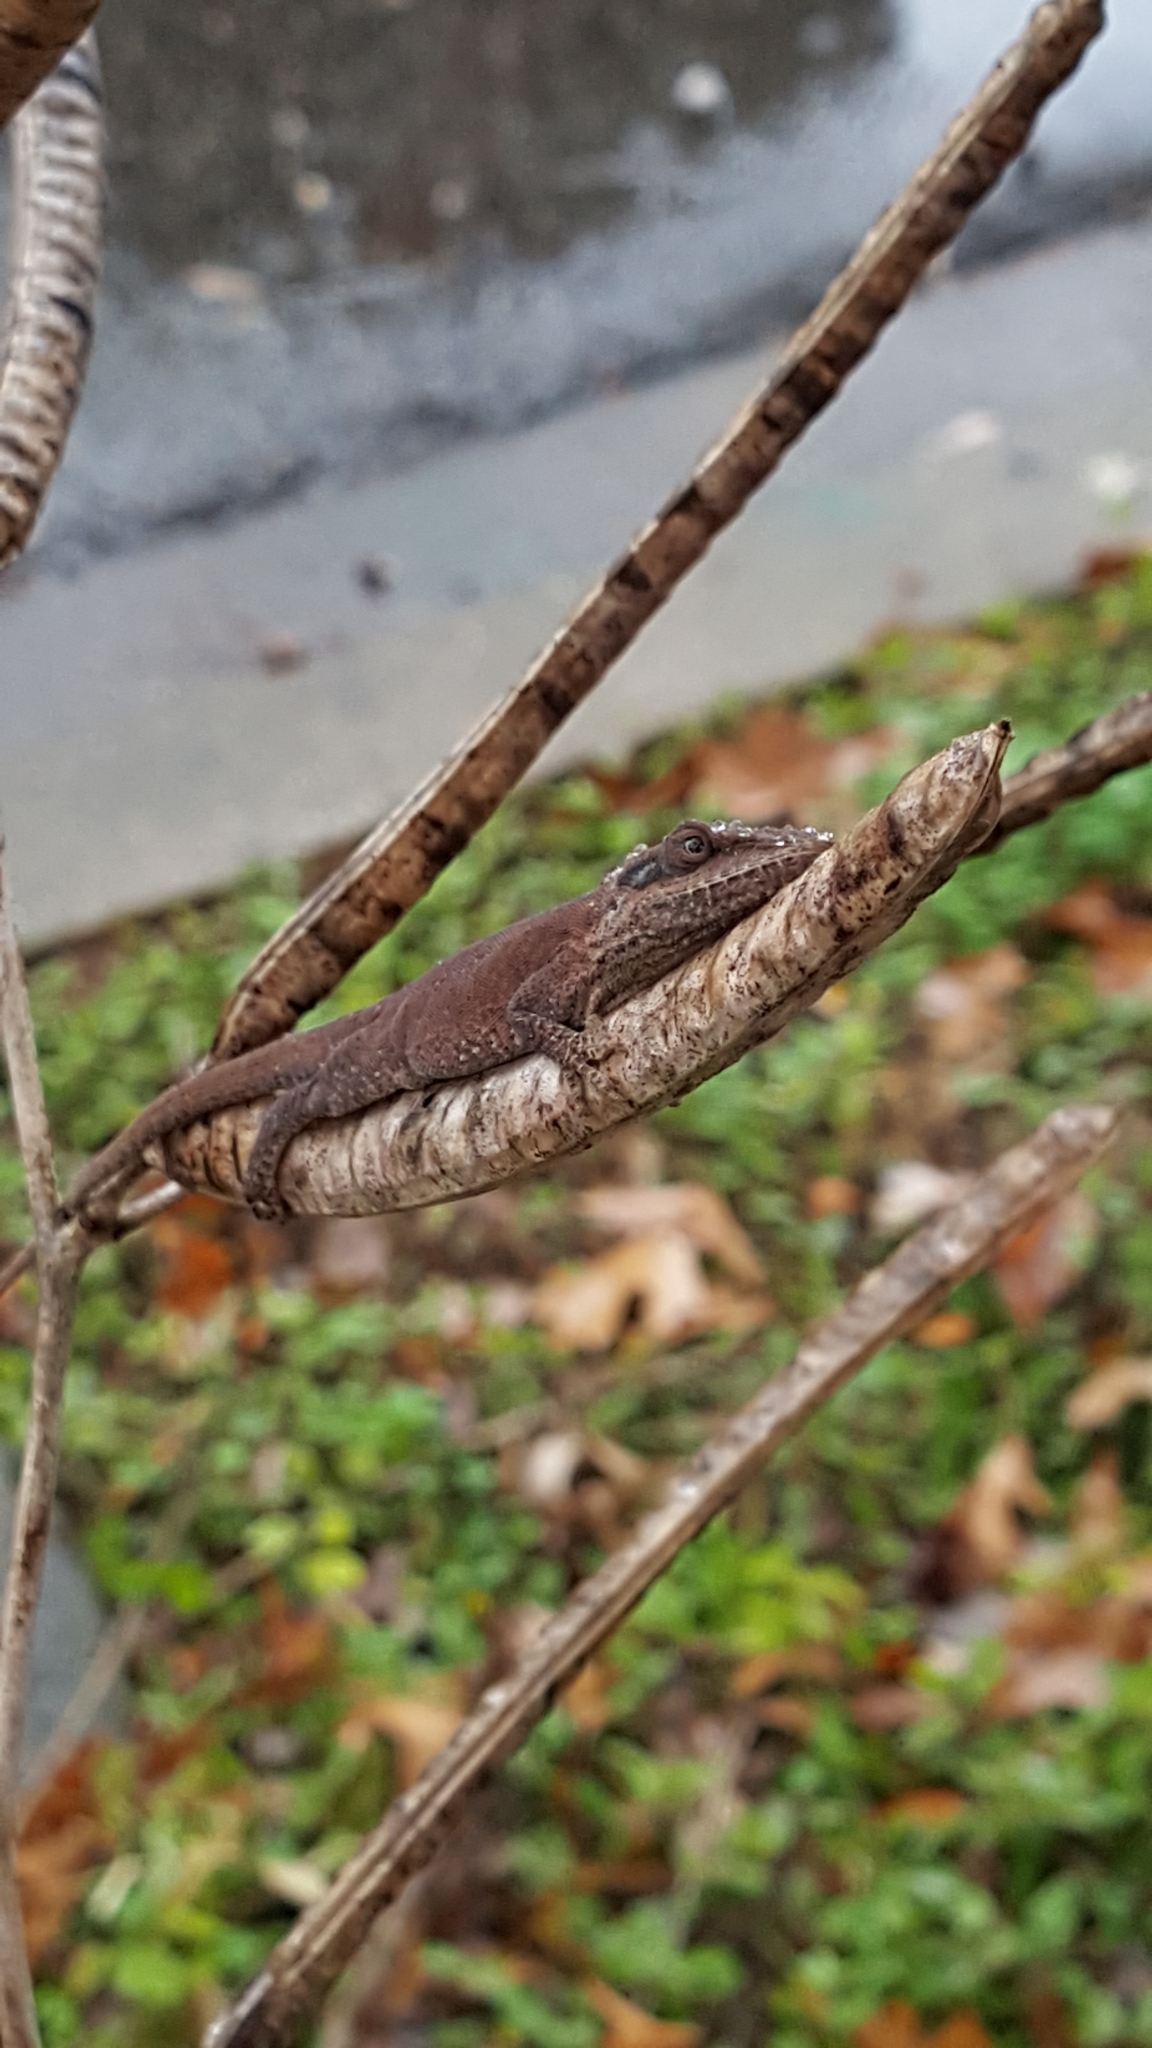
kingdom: Animalia
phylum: Chordata
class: Squamata
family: Dactyloidae
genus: Anolis
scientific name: Anolis carolinensis
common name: Green anole
